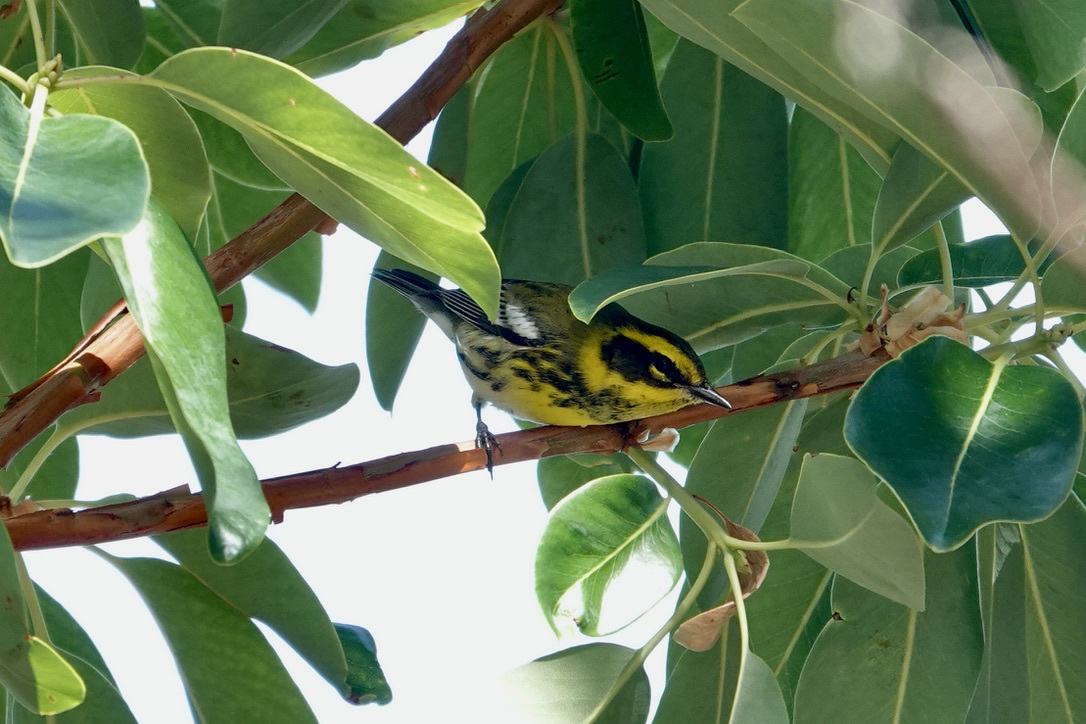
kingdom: Animalia
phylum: Chordata
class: Aves
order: Passeriformes
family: Parulidae
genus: Setophaga
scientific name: Setophaga townsendi
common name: Townsend's warbler
